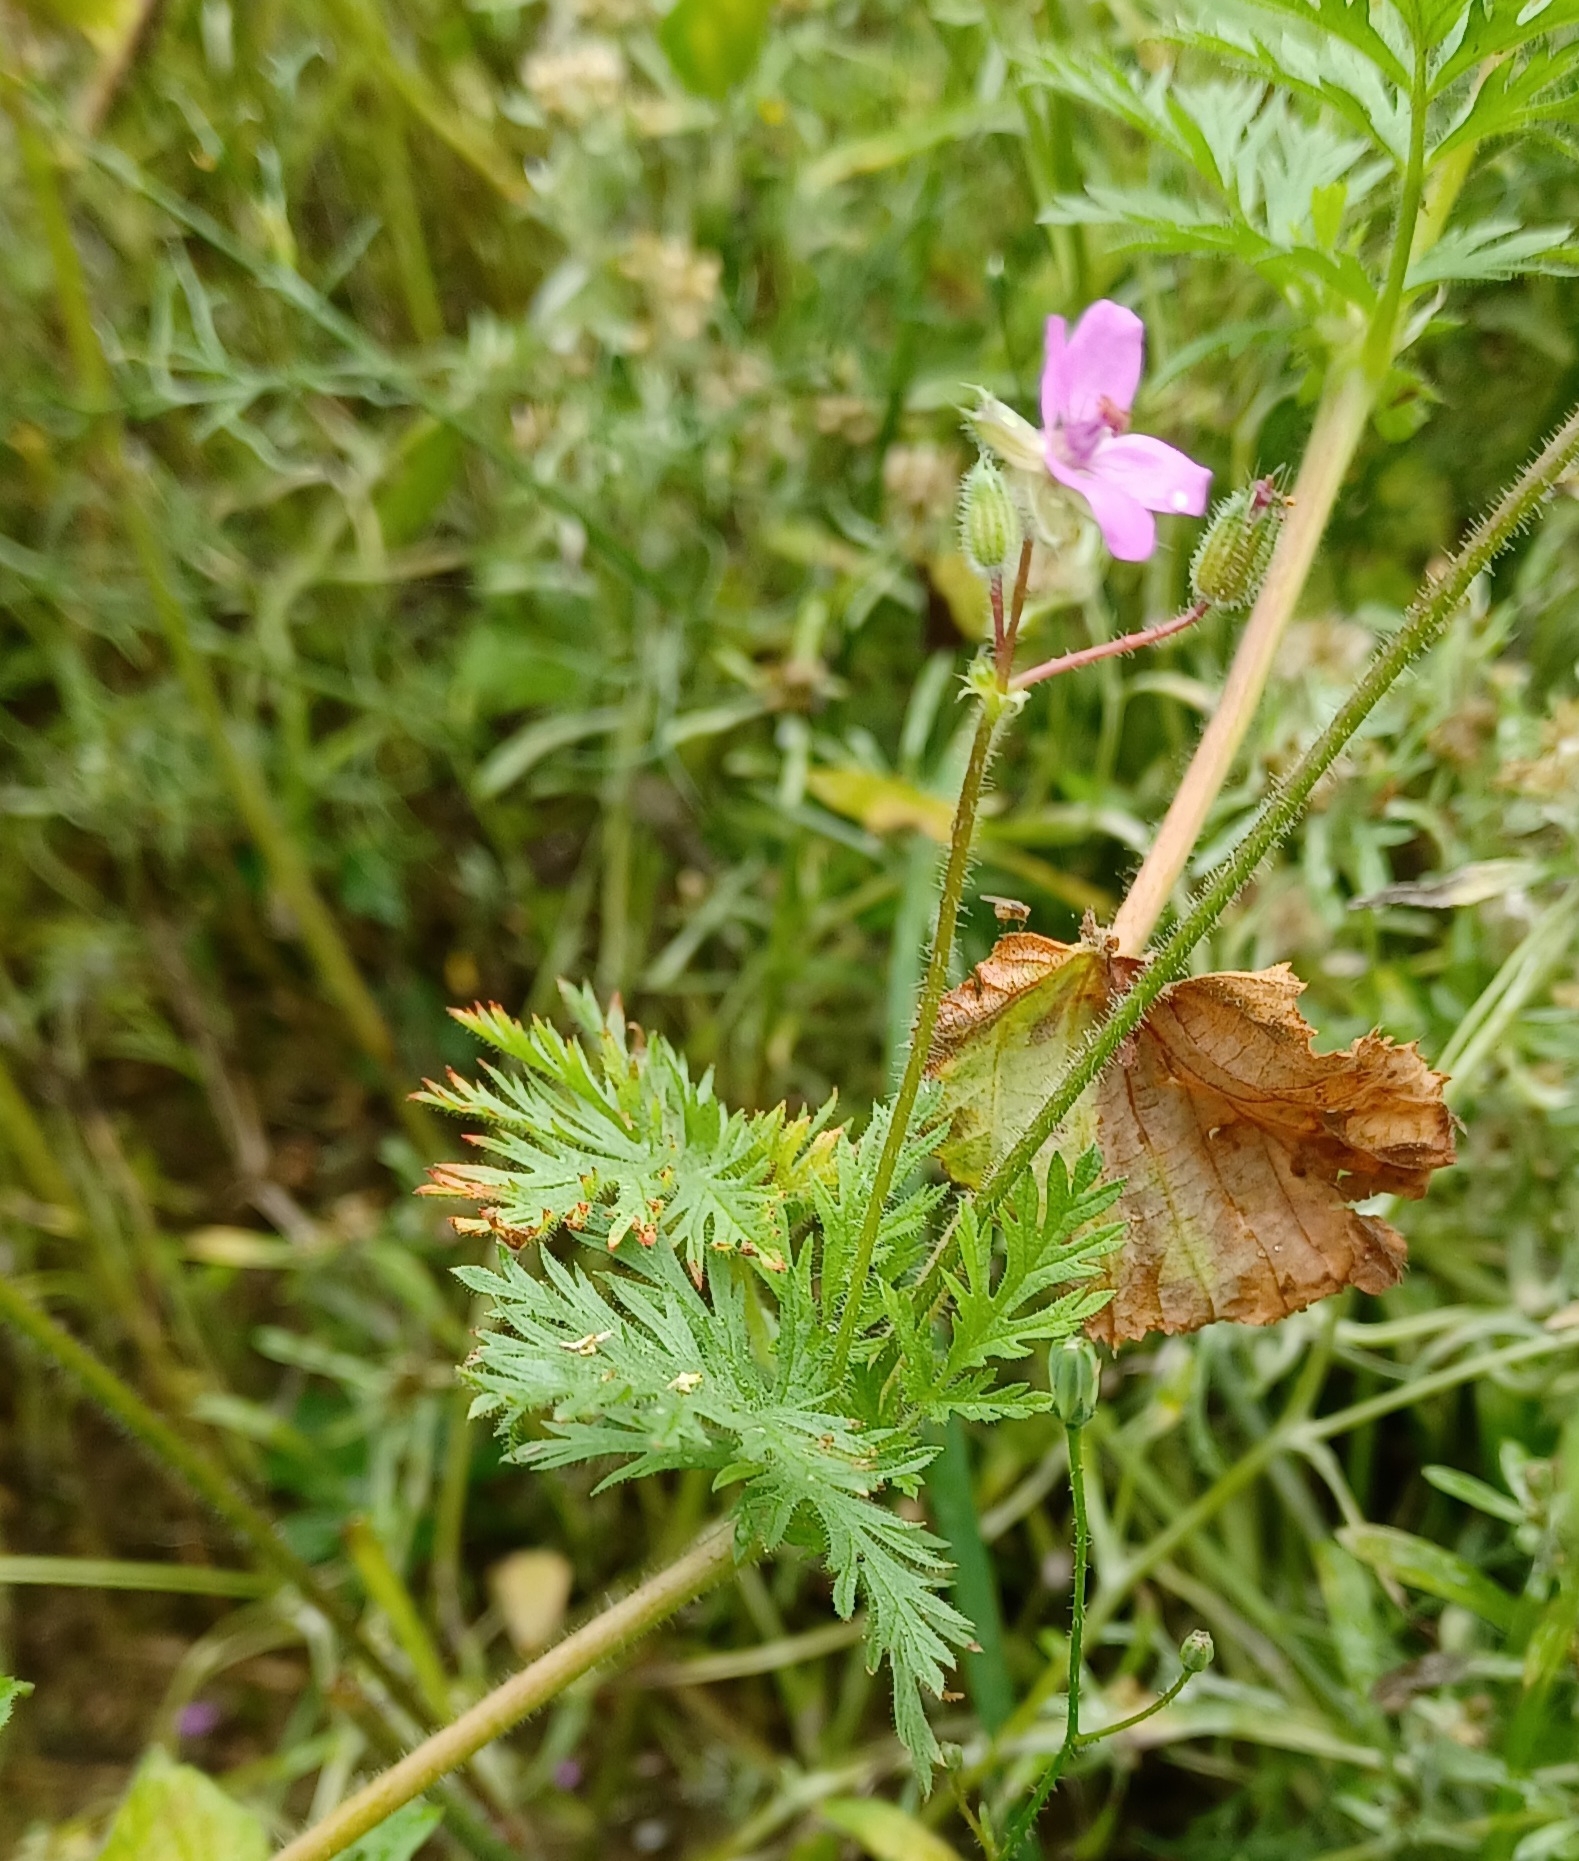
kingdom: Plantae
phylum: Tracheophyta
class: Magnoliopsida
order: Geraniales
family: Geraniaceae
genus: Erodium
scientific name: Erodium cicutarium
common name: Common stork's-bill
